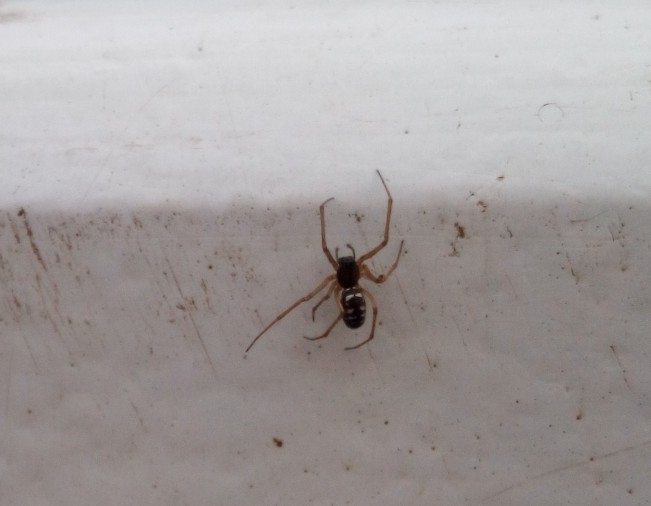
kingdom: Animalia
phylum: Arthropoda
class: Arachnida
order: Araneae
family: Linyphiidae
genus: Microlinyphia
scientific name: Microlinyphia pusilla
